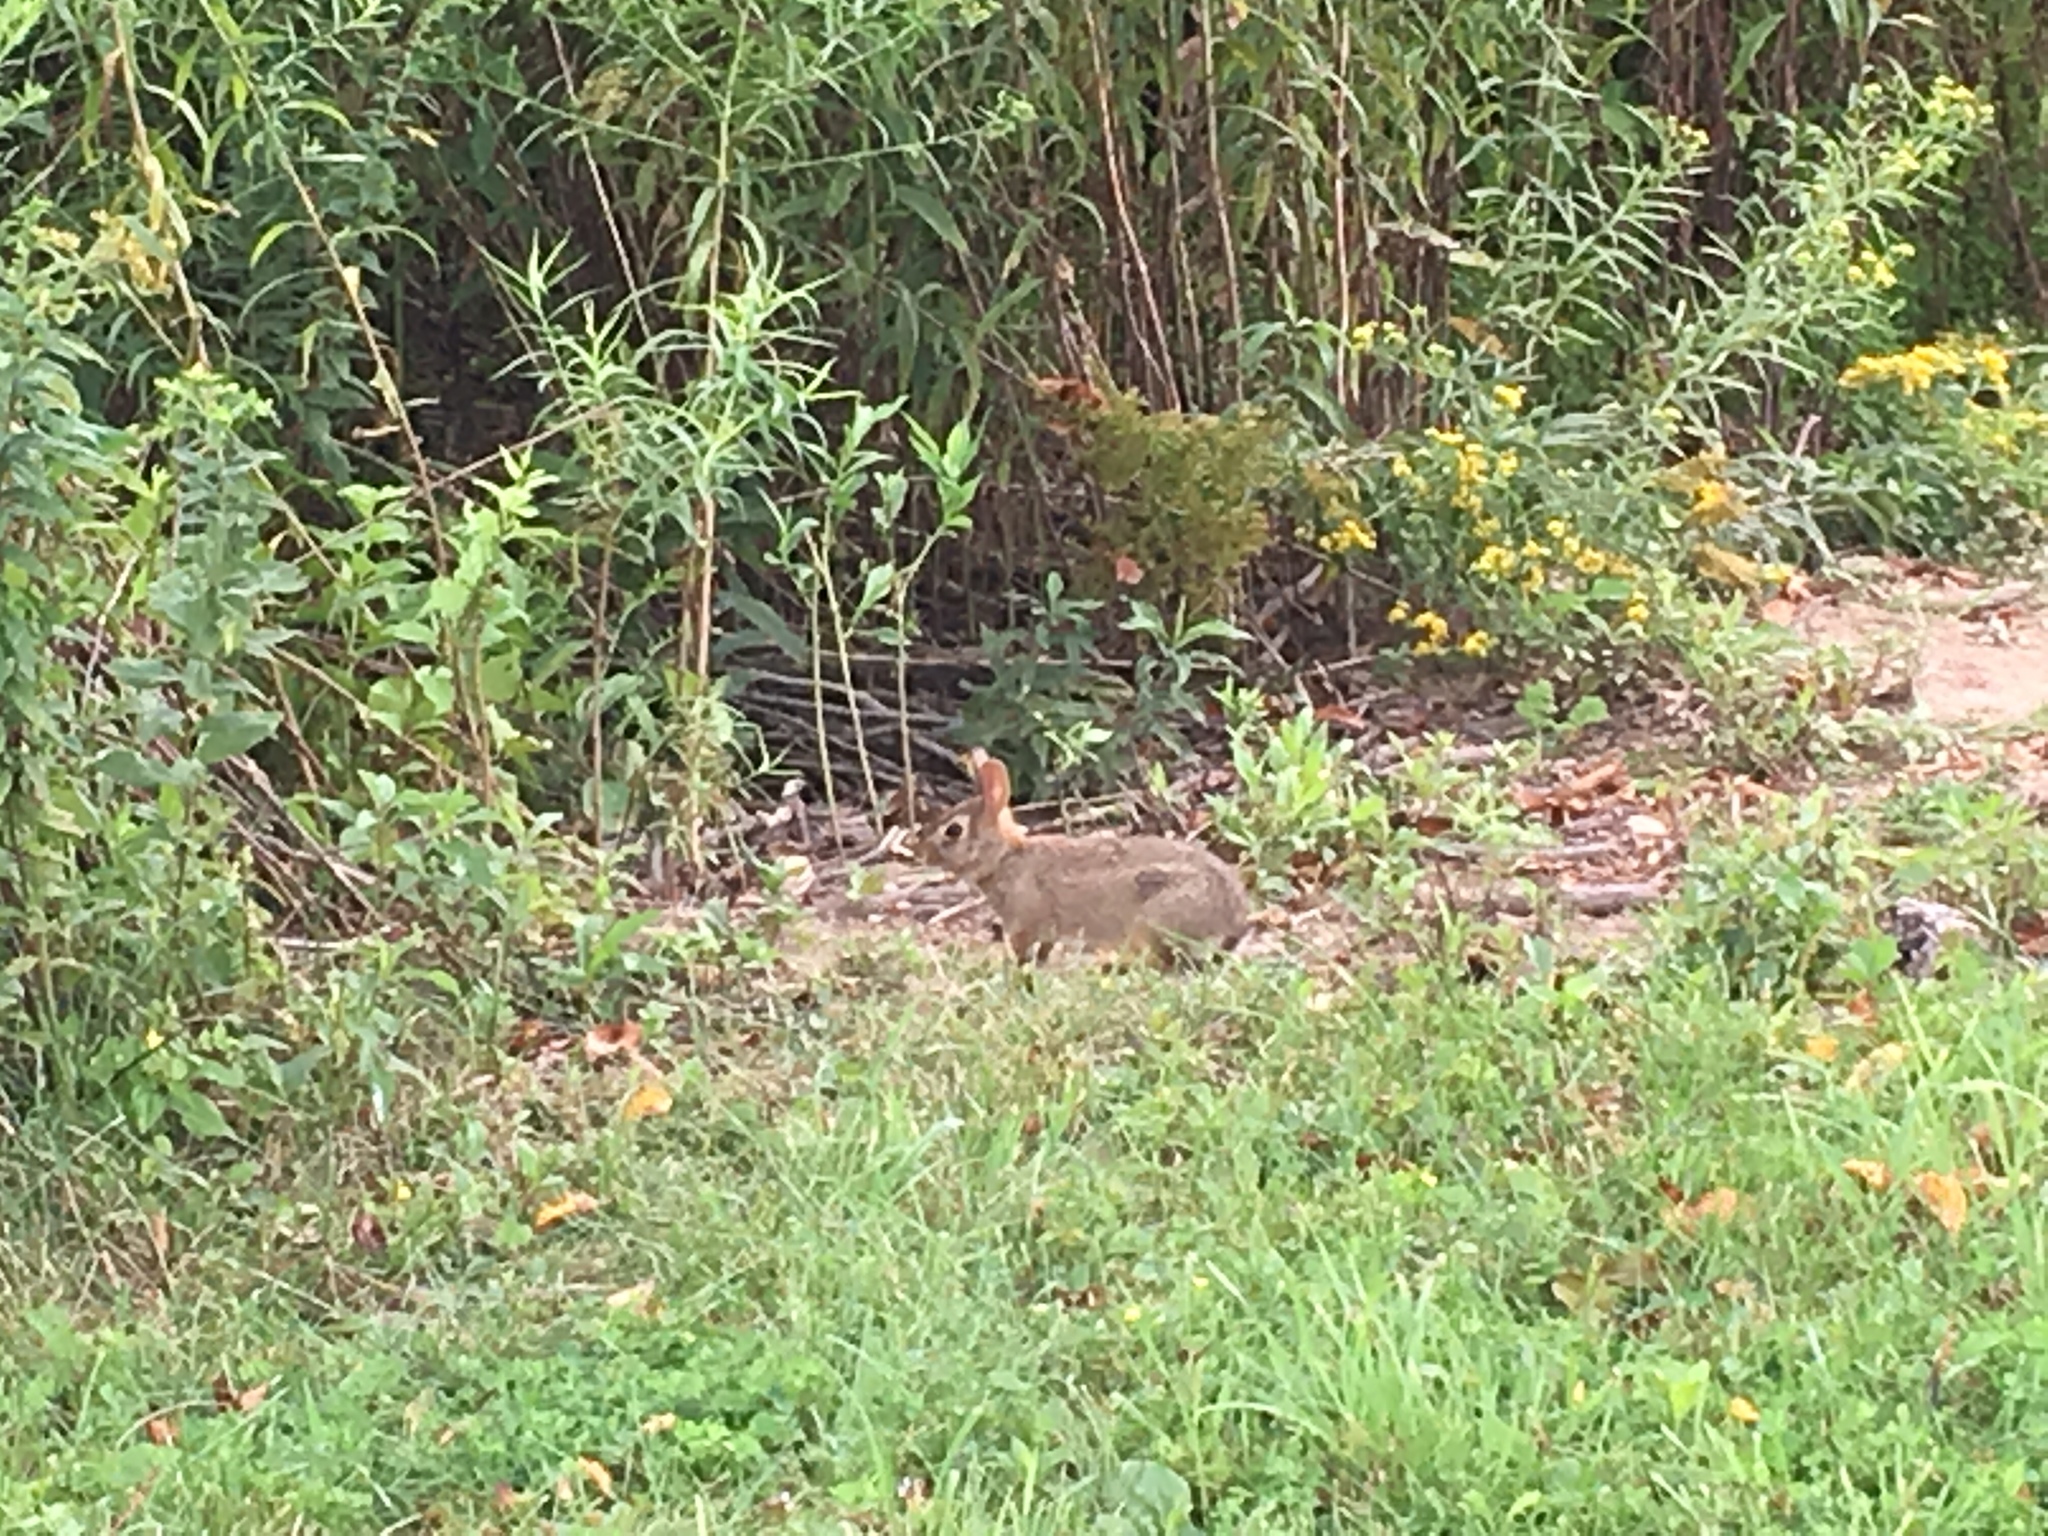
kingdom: Animalia
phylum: Chordata
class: Mammalia
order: Lagomorpha
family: Leporidae
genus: Sylvilagus
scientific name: Sylvilagus floridanus
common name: Eastern cottontail
